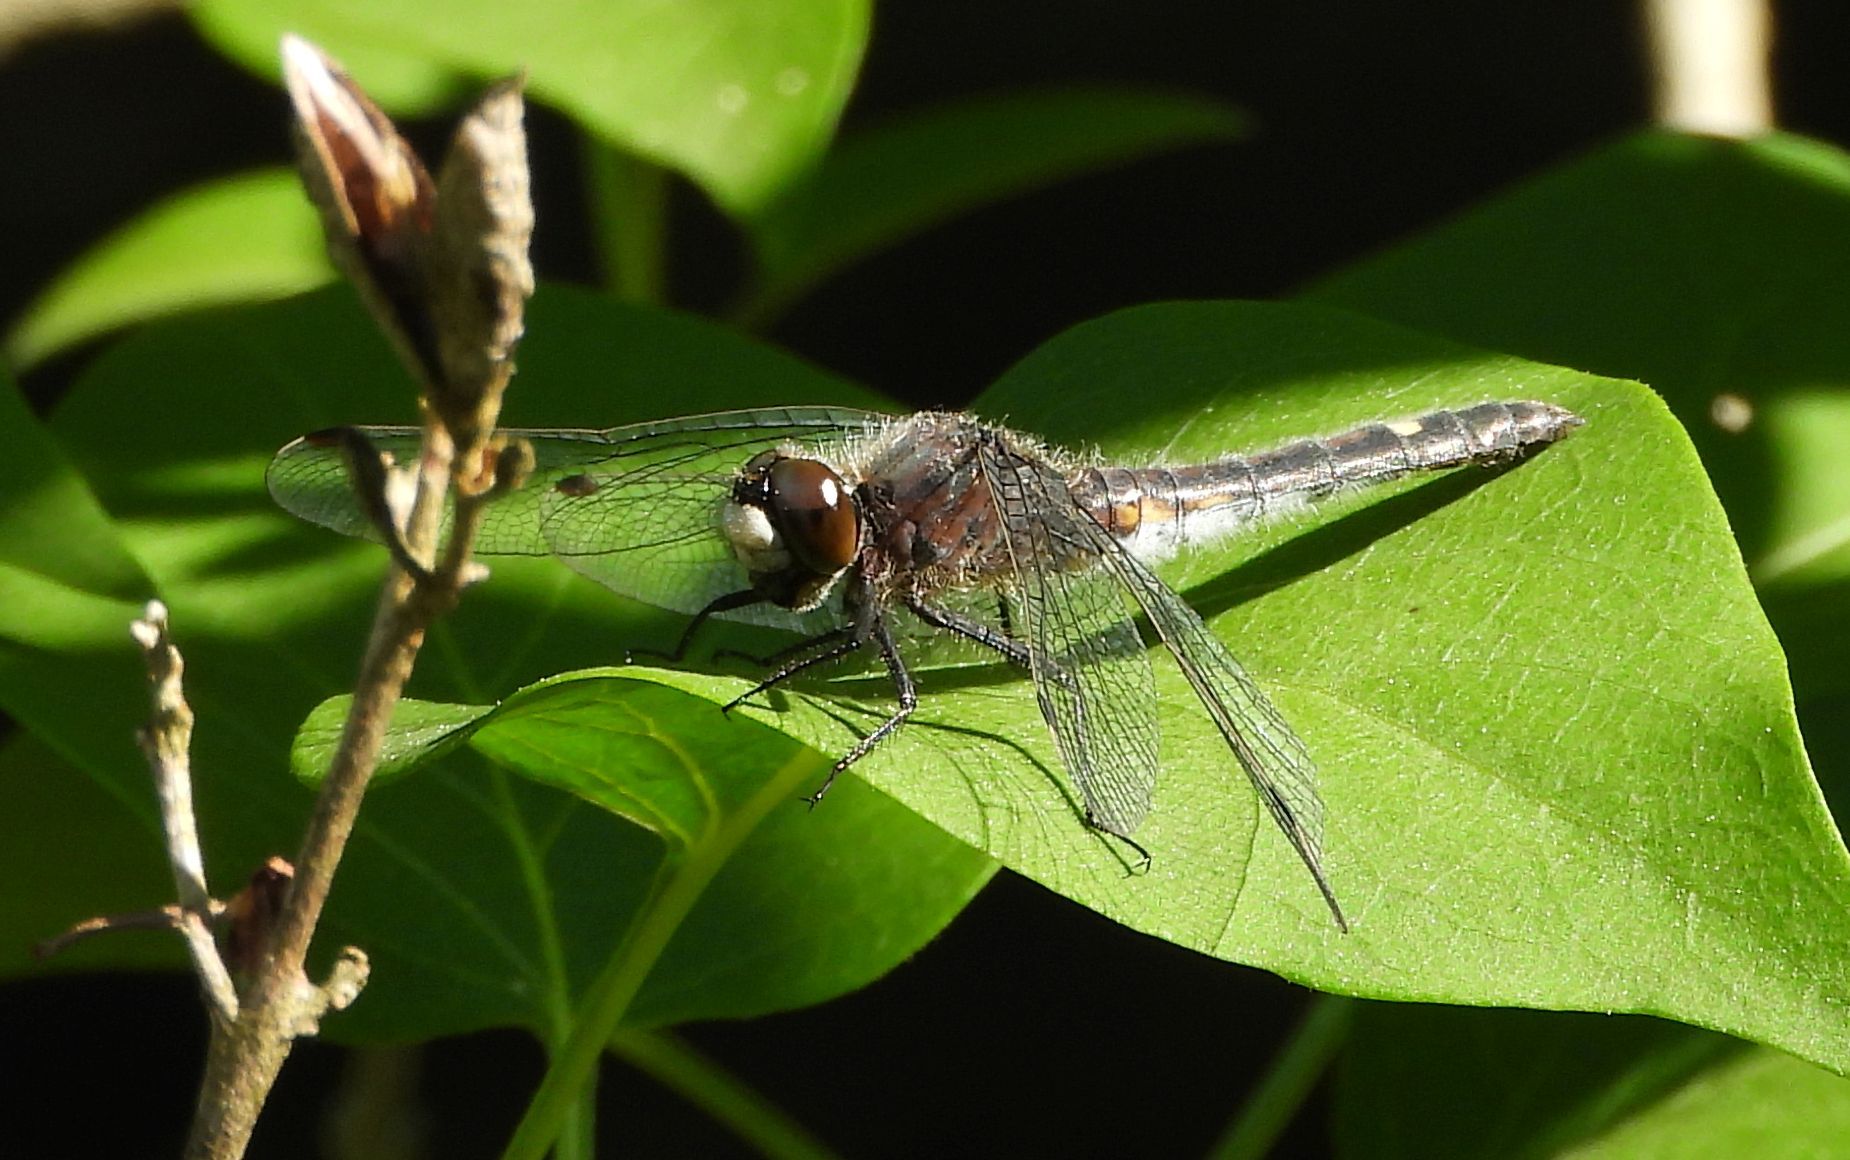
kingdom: Animalia
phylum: Arthropoda
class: Insecta
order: Odonata
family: Libellulidae
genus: Leucorrhinia
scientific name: Leucorrhinia intacta
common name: Dot-tailed whiteface
